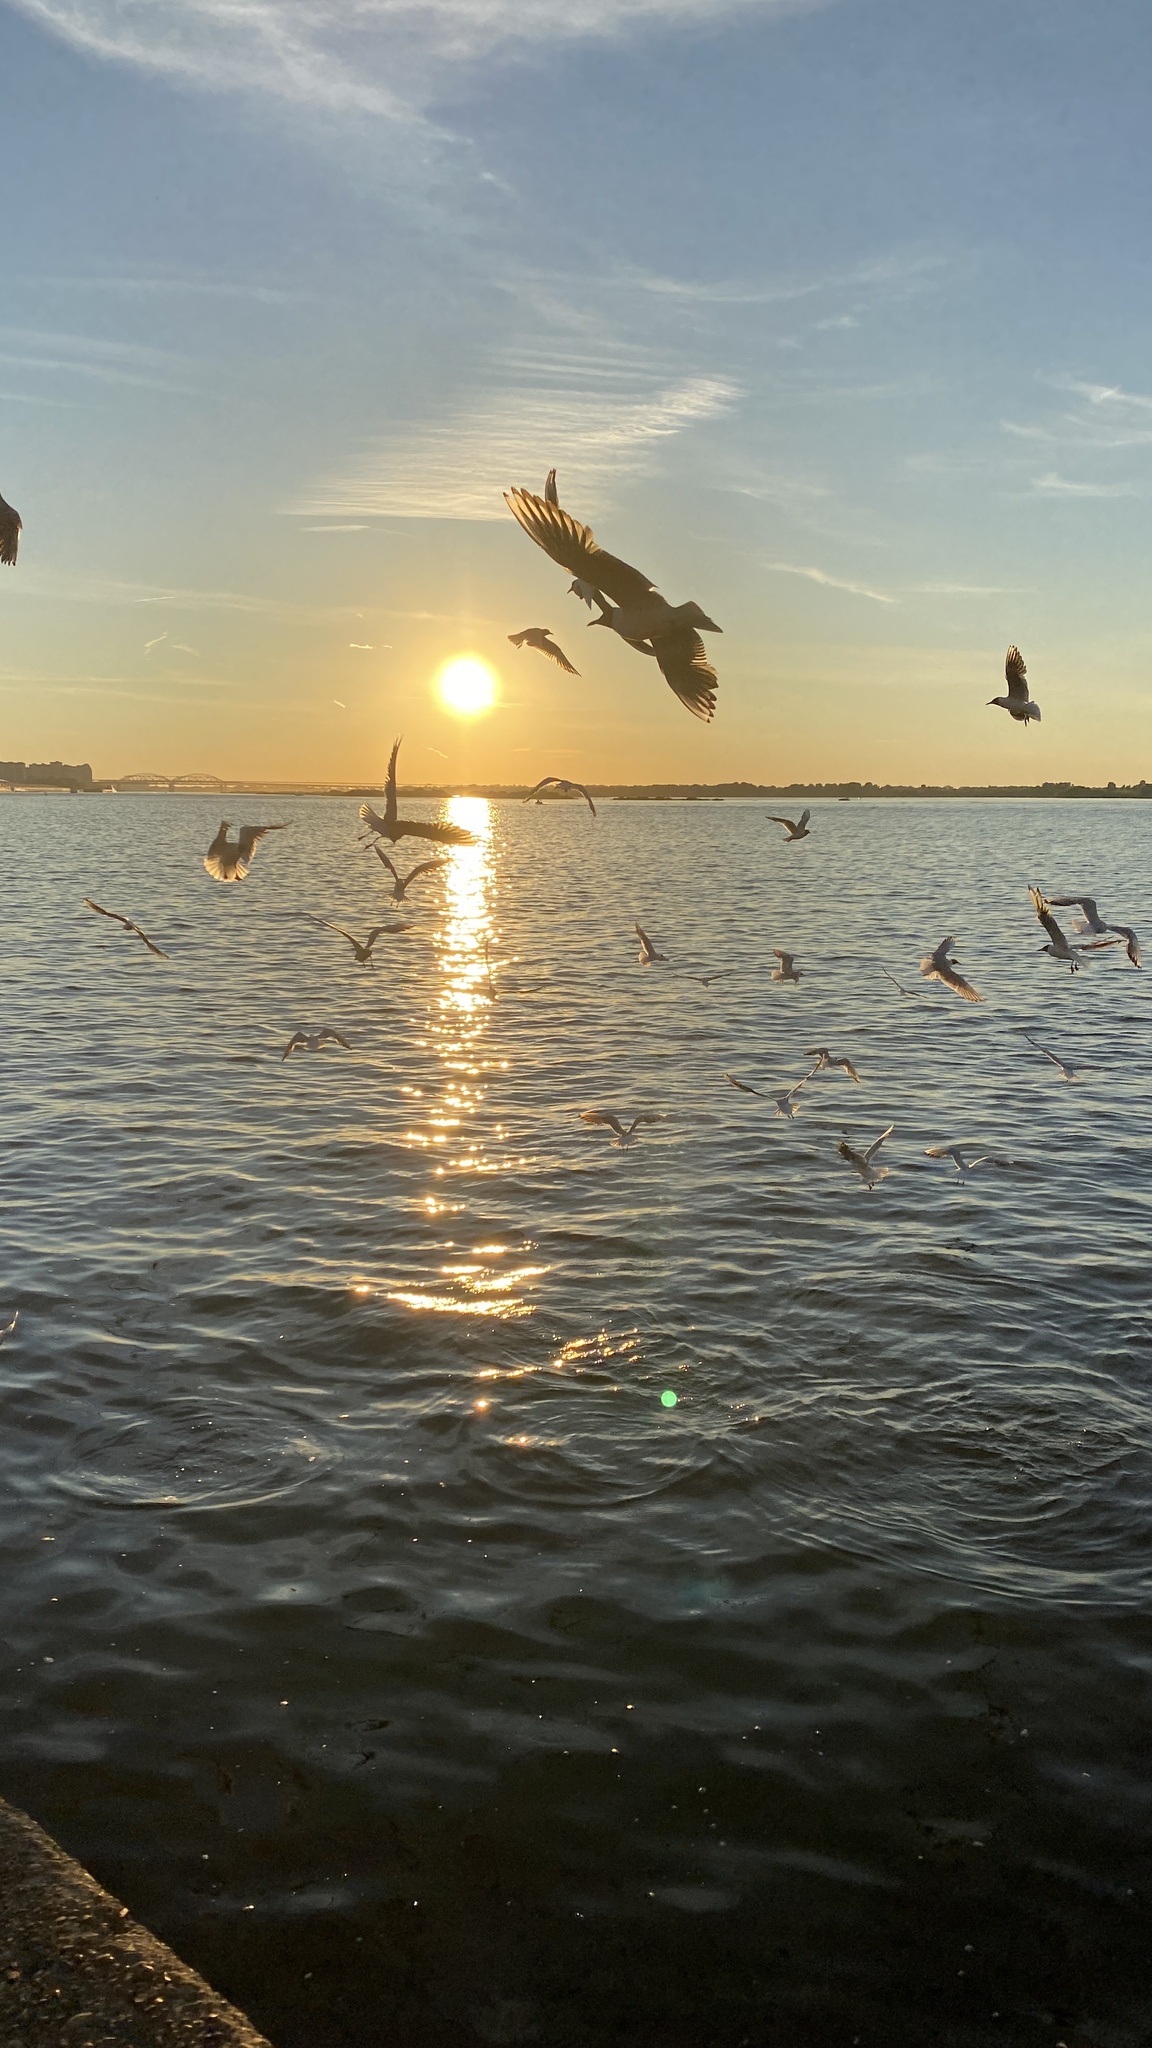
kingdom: Animalia
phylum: Chordata
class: Aves
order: Charadriiformes
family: Laridae
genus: Chroicocephalus
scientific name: Chroicocephalus ridibundus
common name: Black-headed gull
